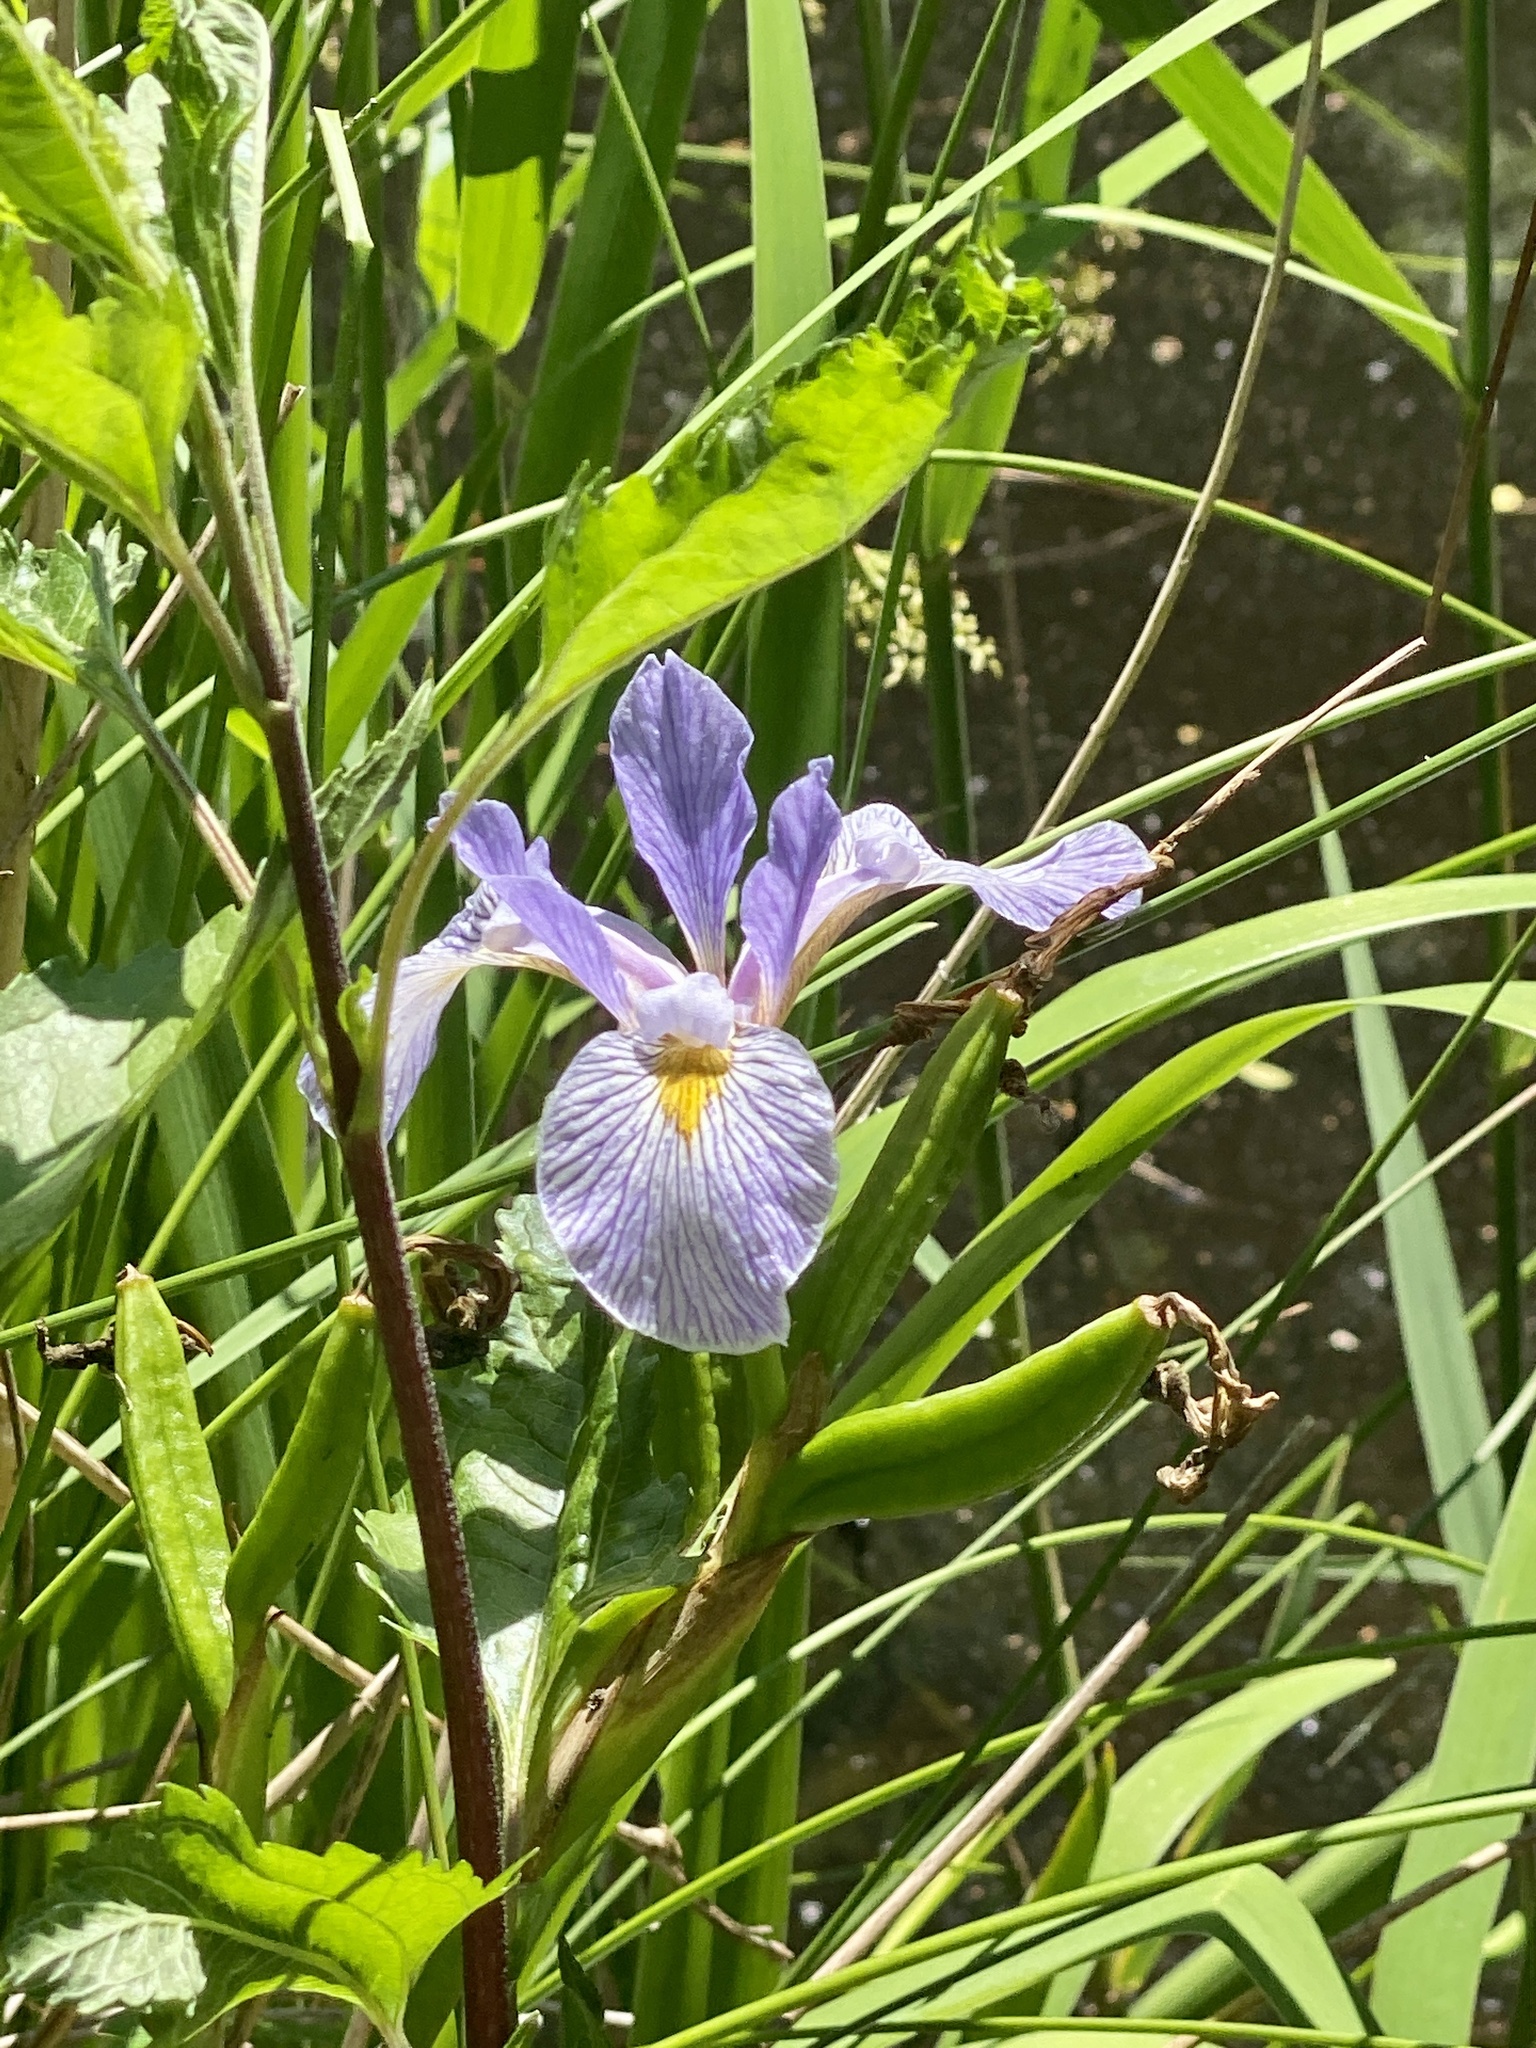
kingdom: Plantae
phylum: Tracheophyta
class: Liliopsida
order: Asparagales
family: Iridaceae
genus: Iris
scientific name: Iris versicolor
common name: Purple iris
